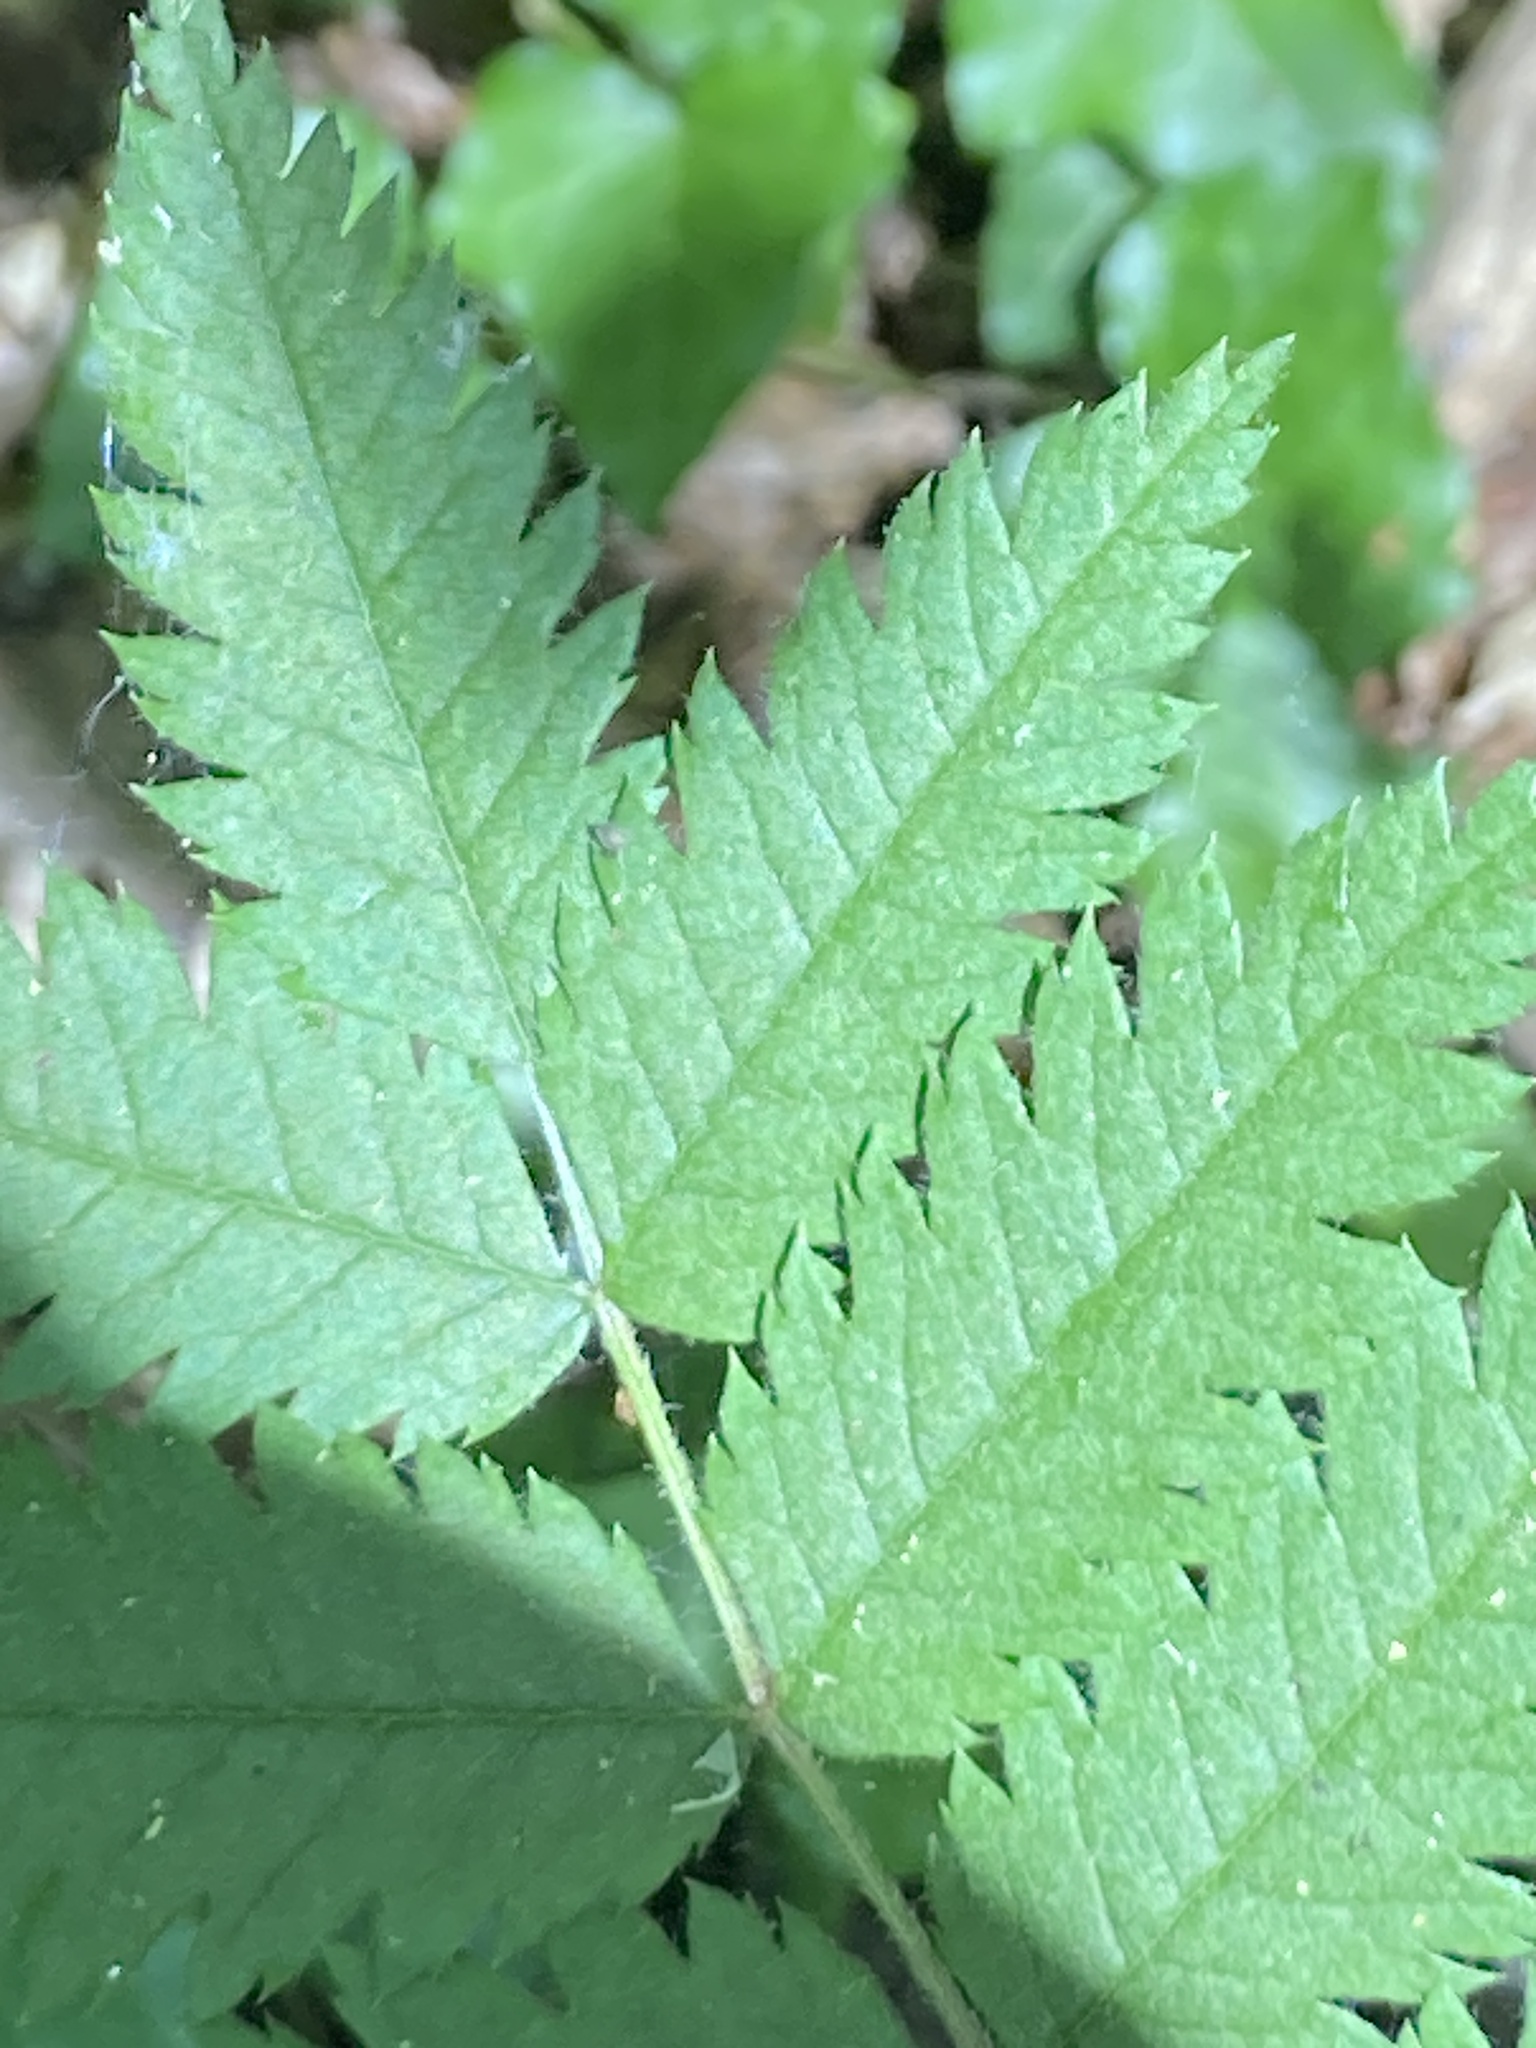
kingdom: Plantae
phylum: Tracheophyta
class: Magnoliopsida
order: Rosales
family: Rosaceae
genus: Sorbus
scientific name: Sorbus aucuparia
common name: Rowan
